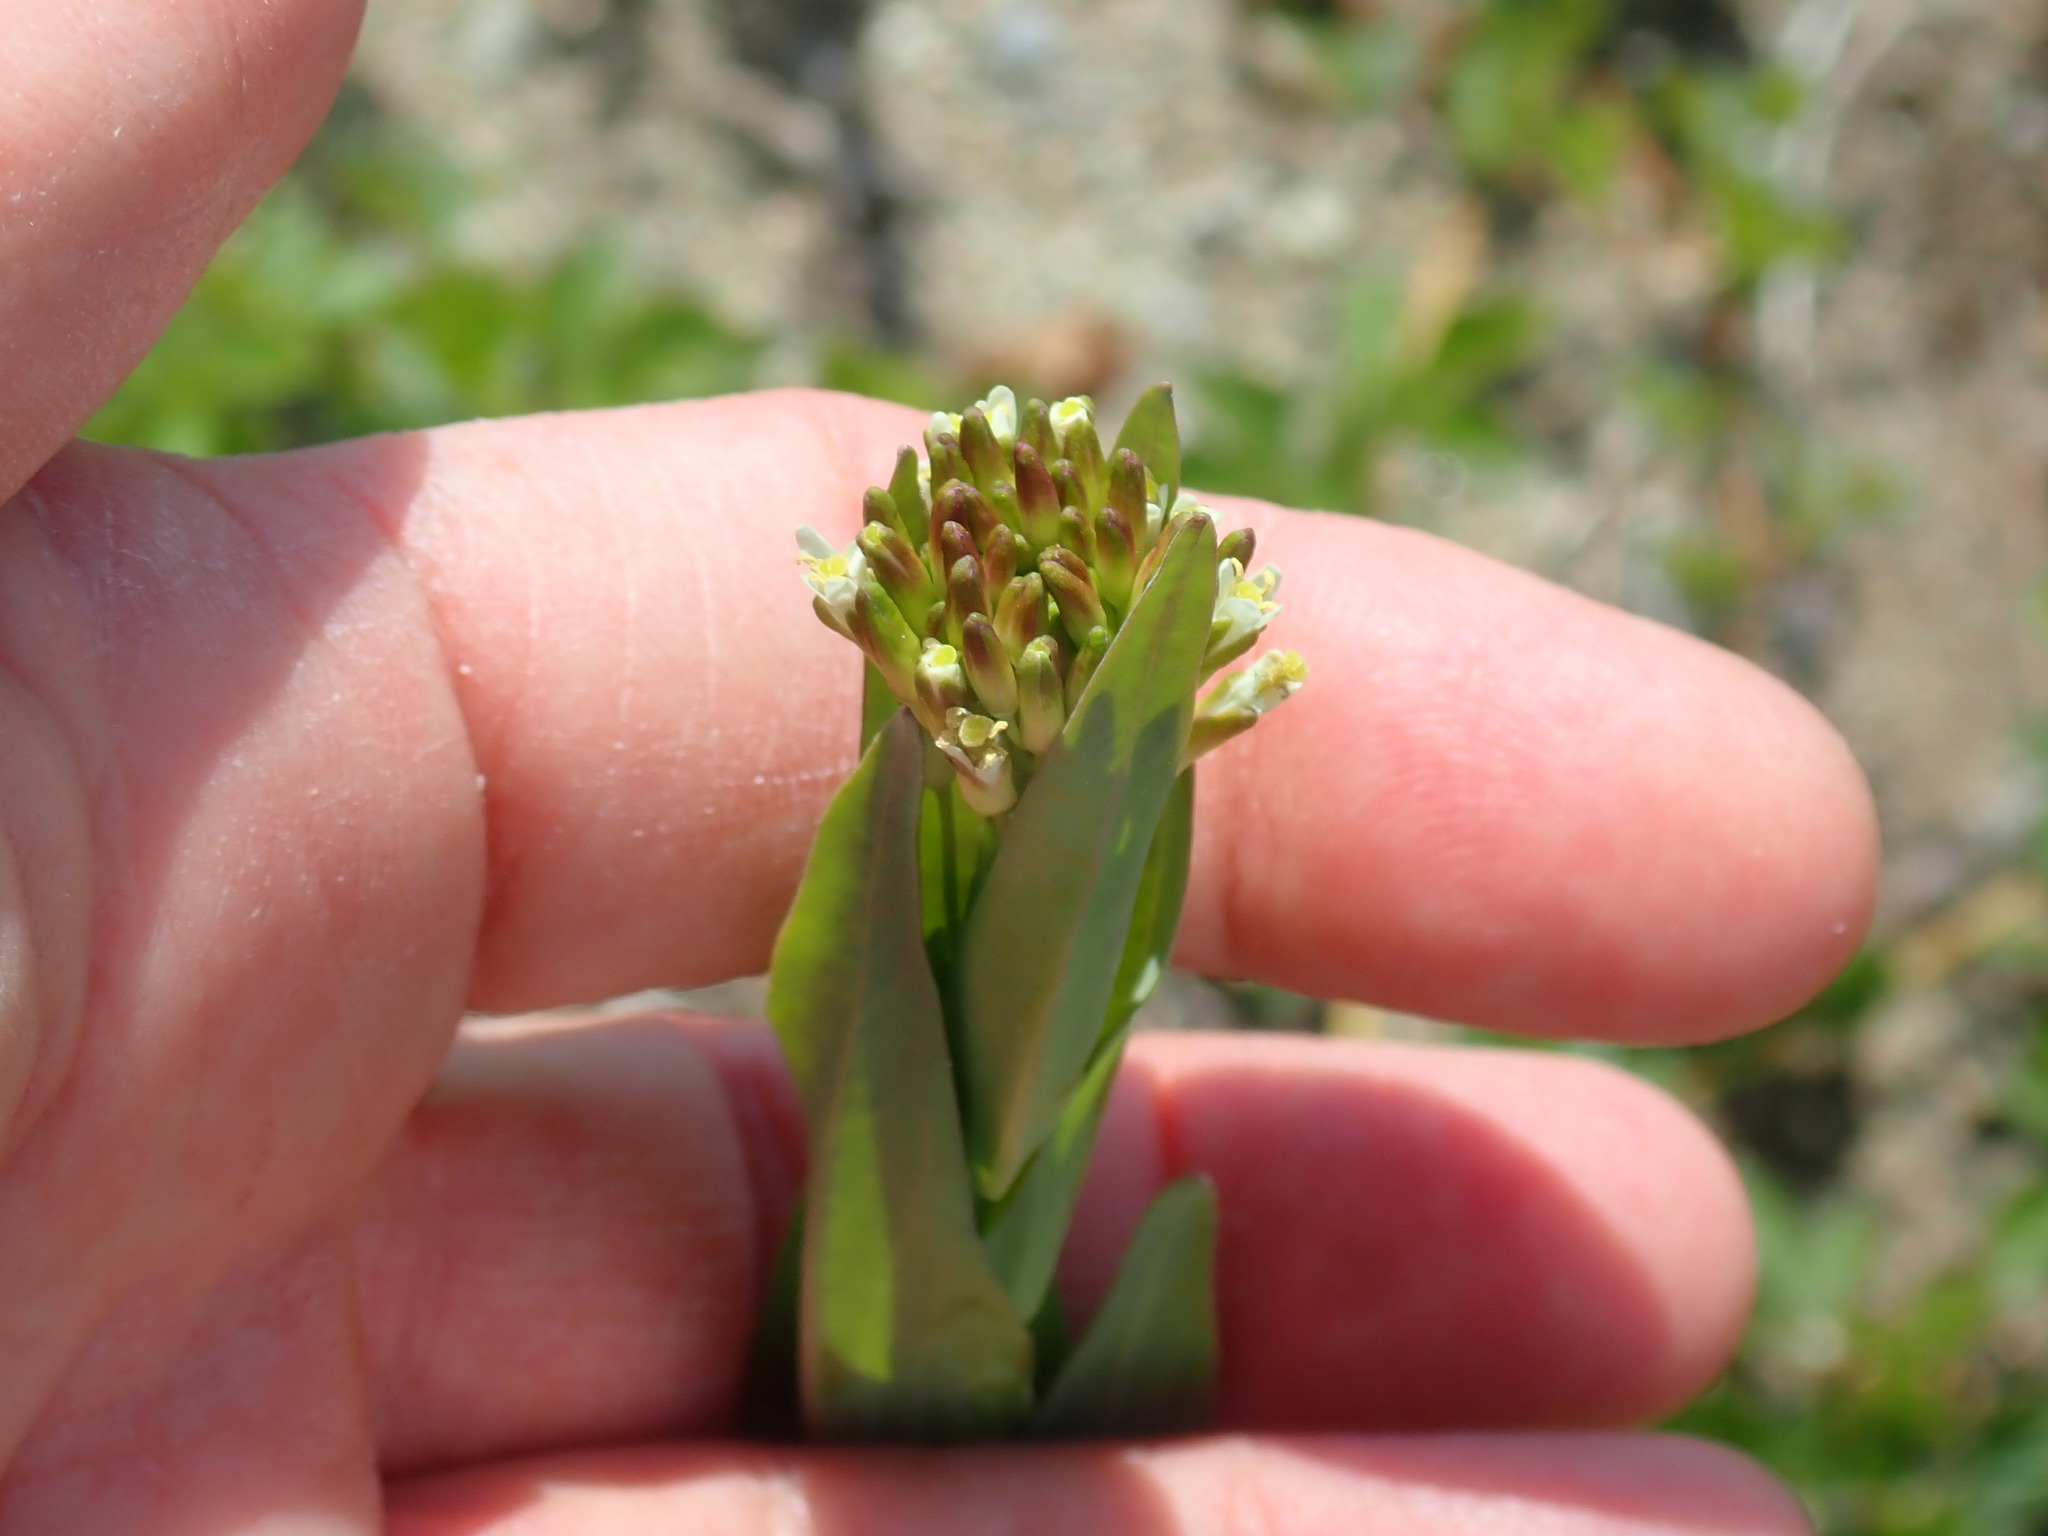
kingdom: Plantae
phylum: Tracheophyta
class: Magnoliopsida
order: Brassicales
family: Brassicaceae
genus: Turritis
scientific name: Turritis glabra
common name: Tower rockcress
